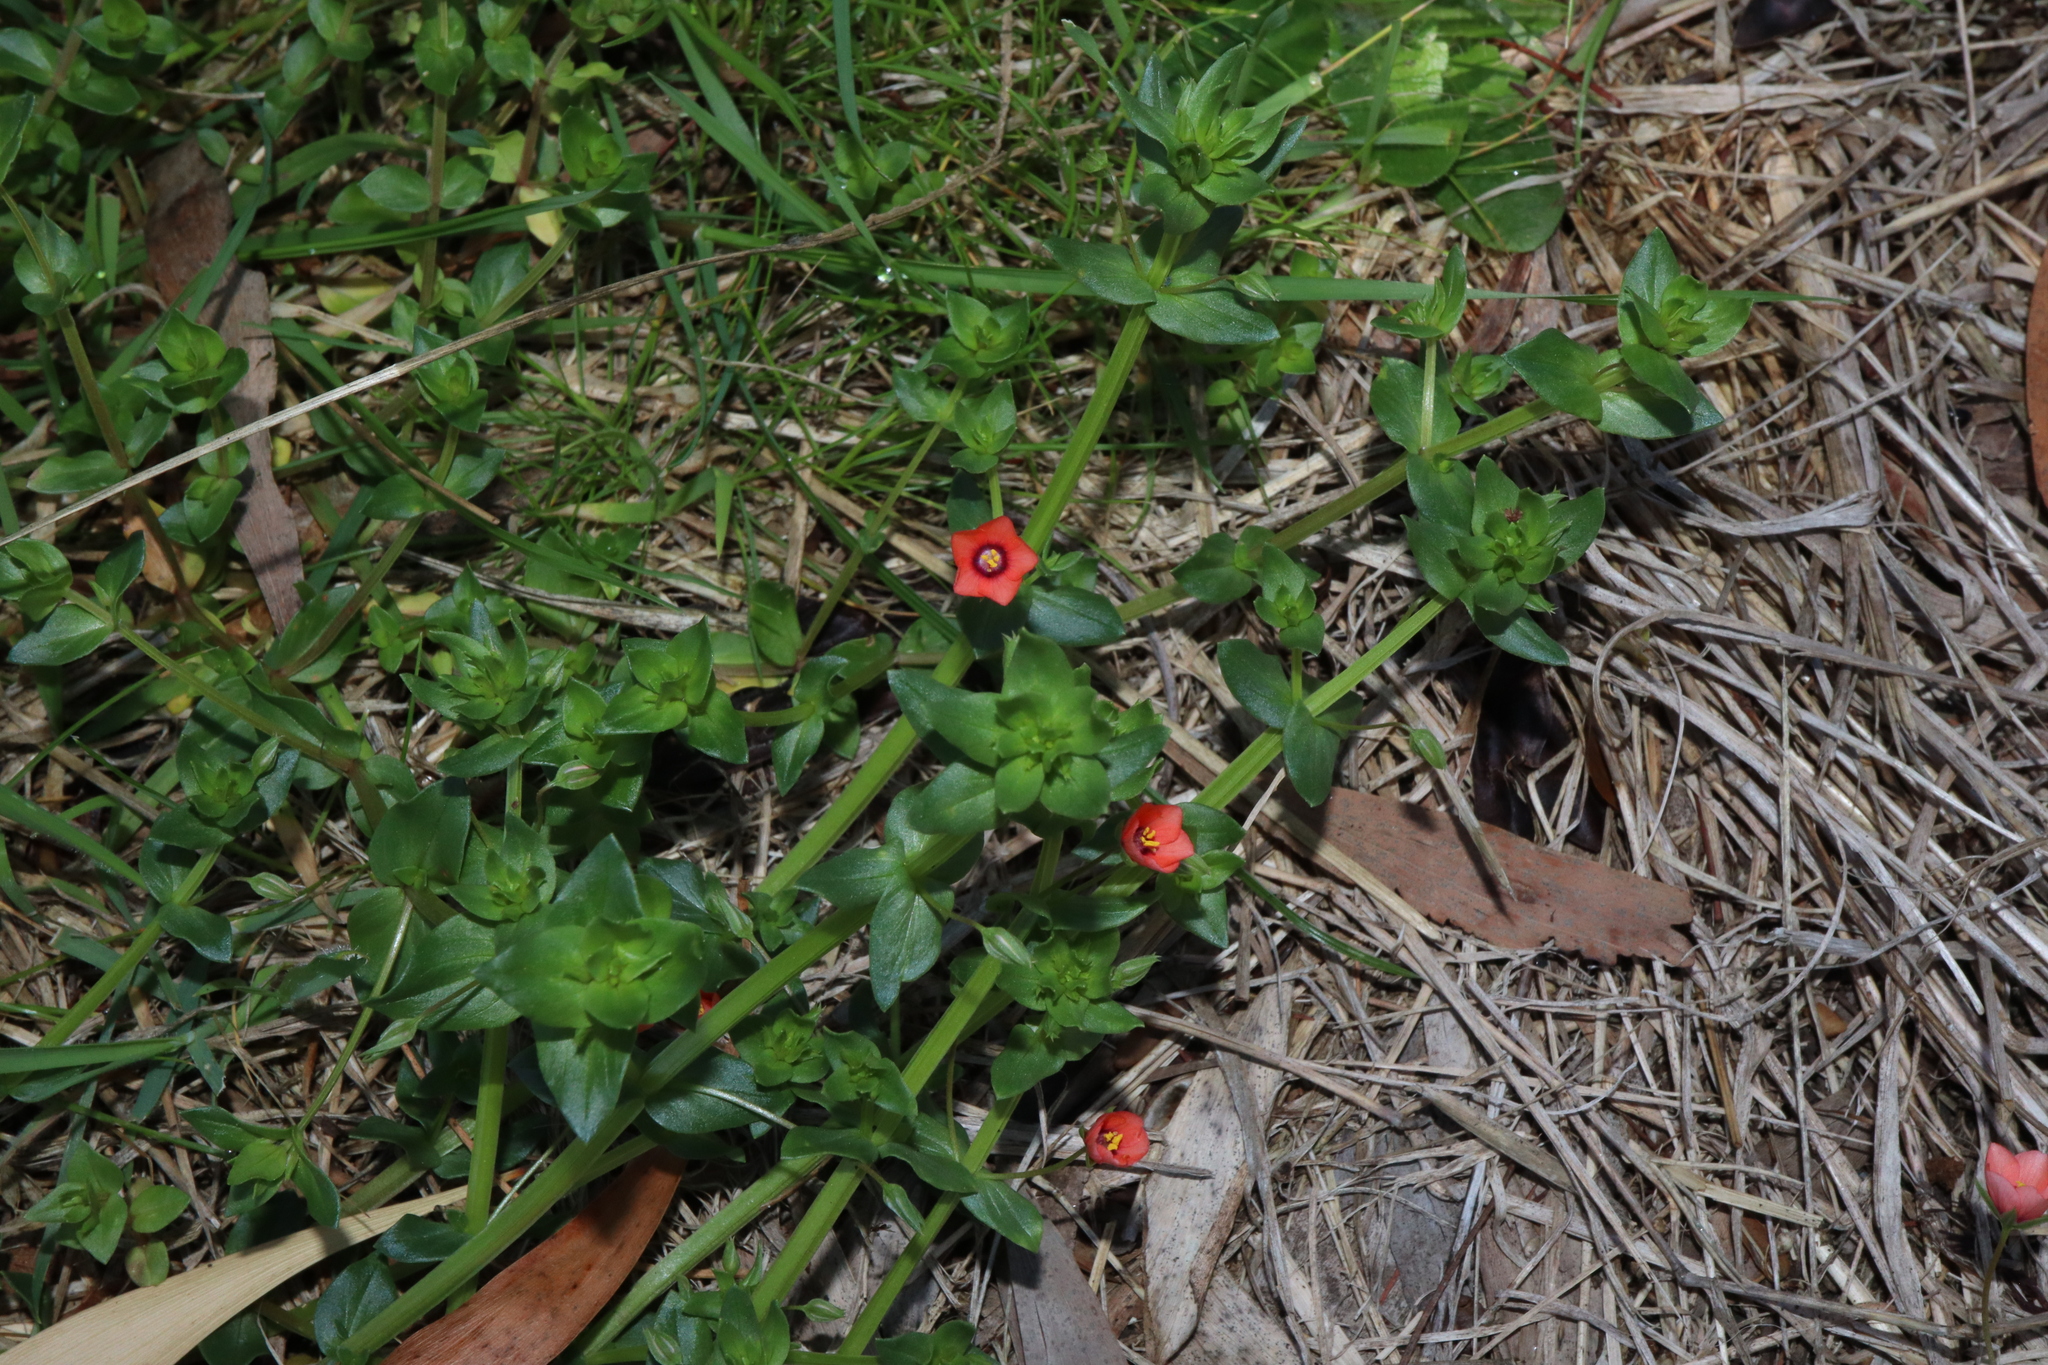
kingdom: Plantae
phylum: Tracheophyta
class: Magnoliopsida
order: Ericales
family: Primulaceae
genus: Lysimachia
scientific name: Lysimachia arvensis
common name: Scarlet pimpernel
